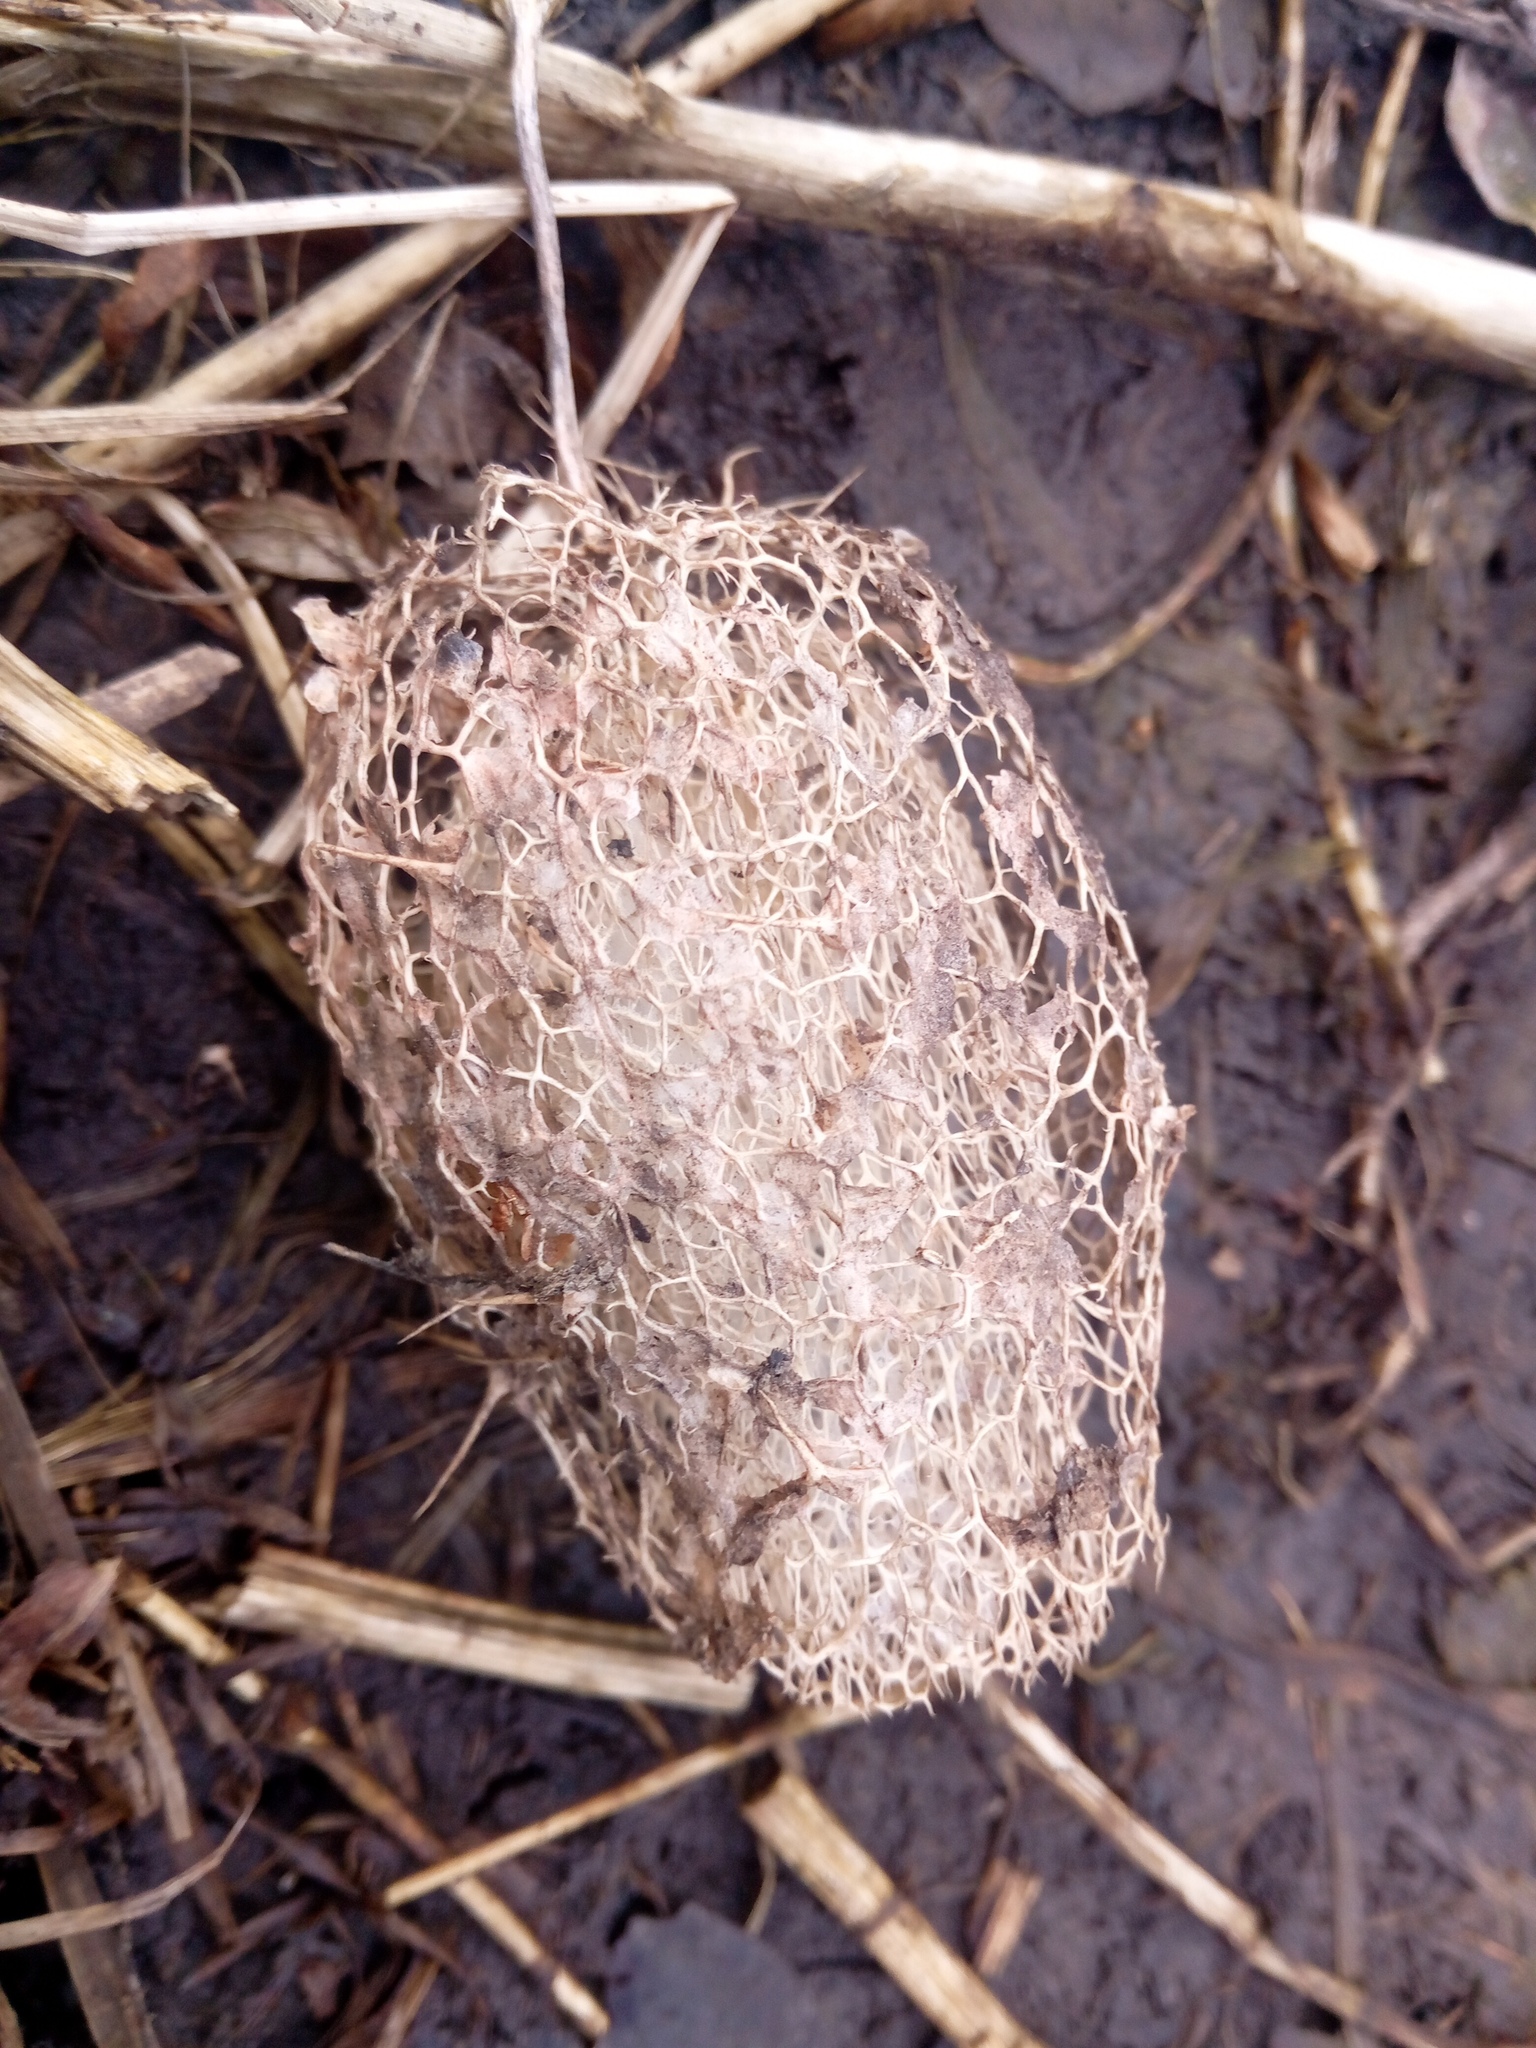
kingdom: Plantae
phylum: Tracheophyta
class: Magnoliopsida
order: Cucurbitales
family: Cucurbitaceae
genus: Echinocystis
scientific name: Echinocystis lobata
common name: Wild cucumber
